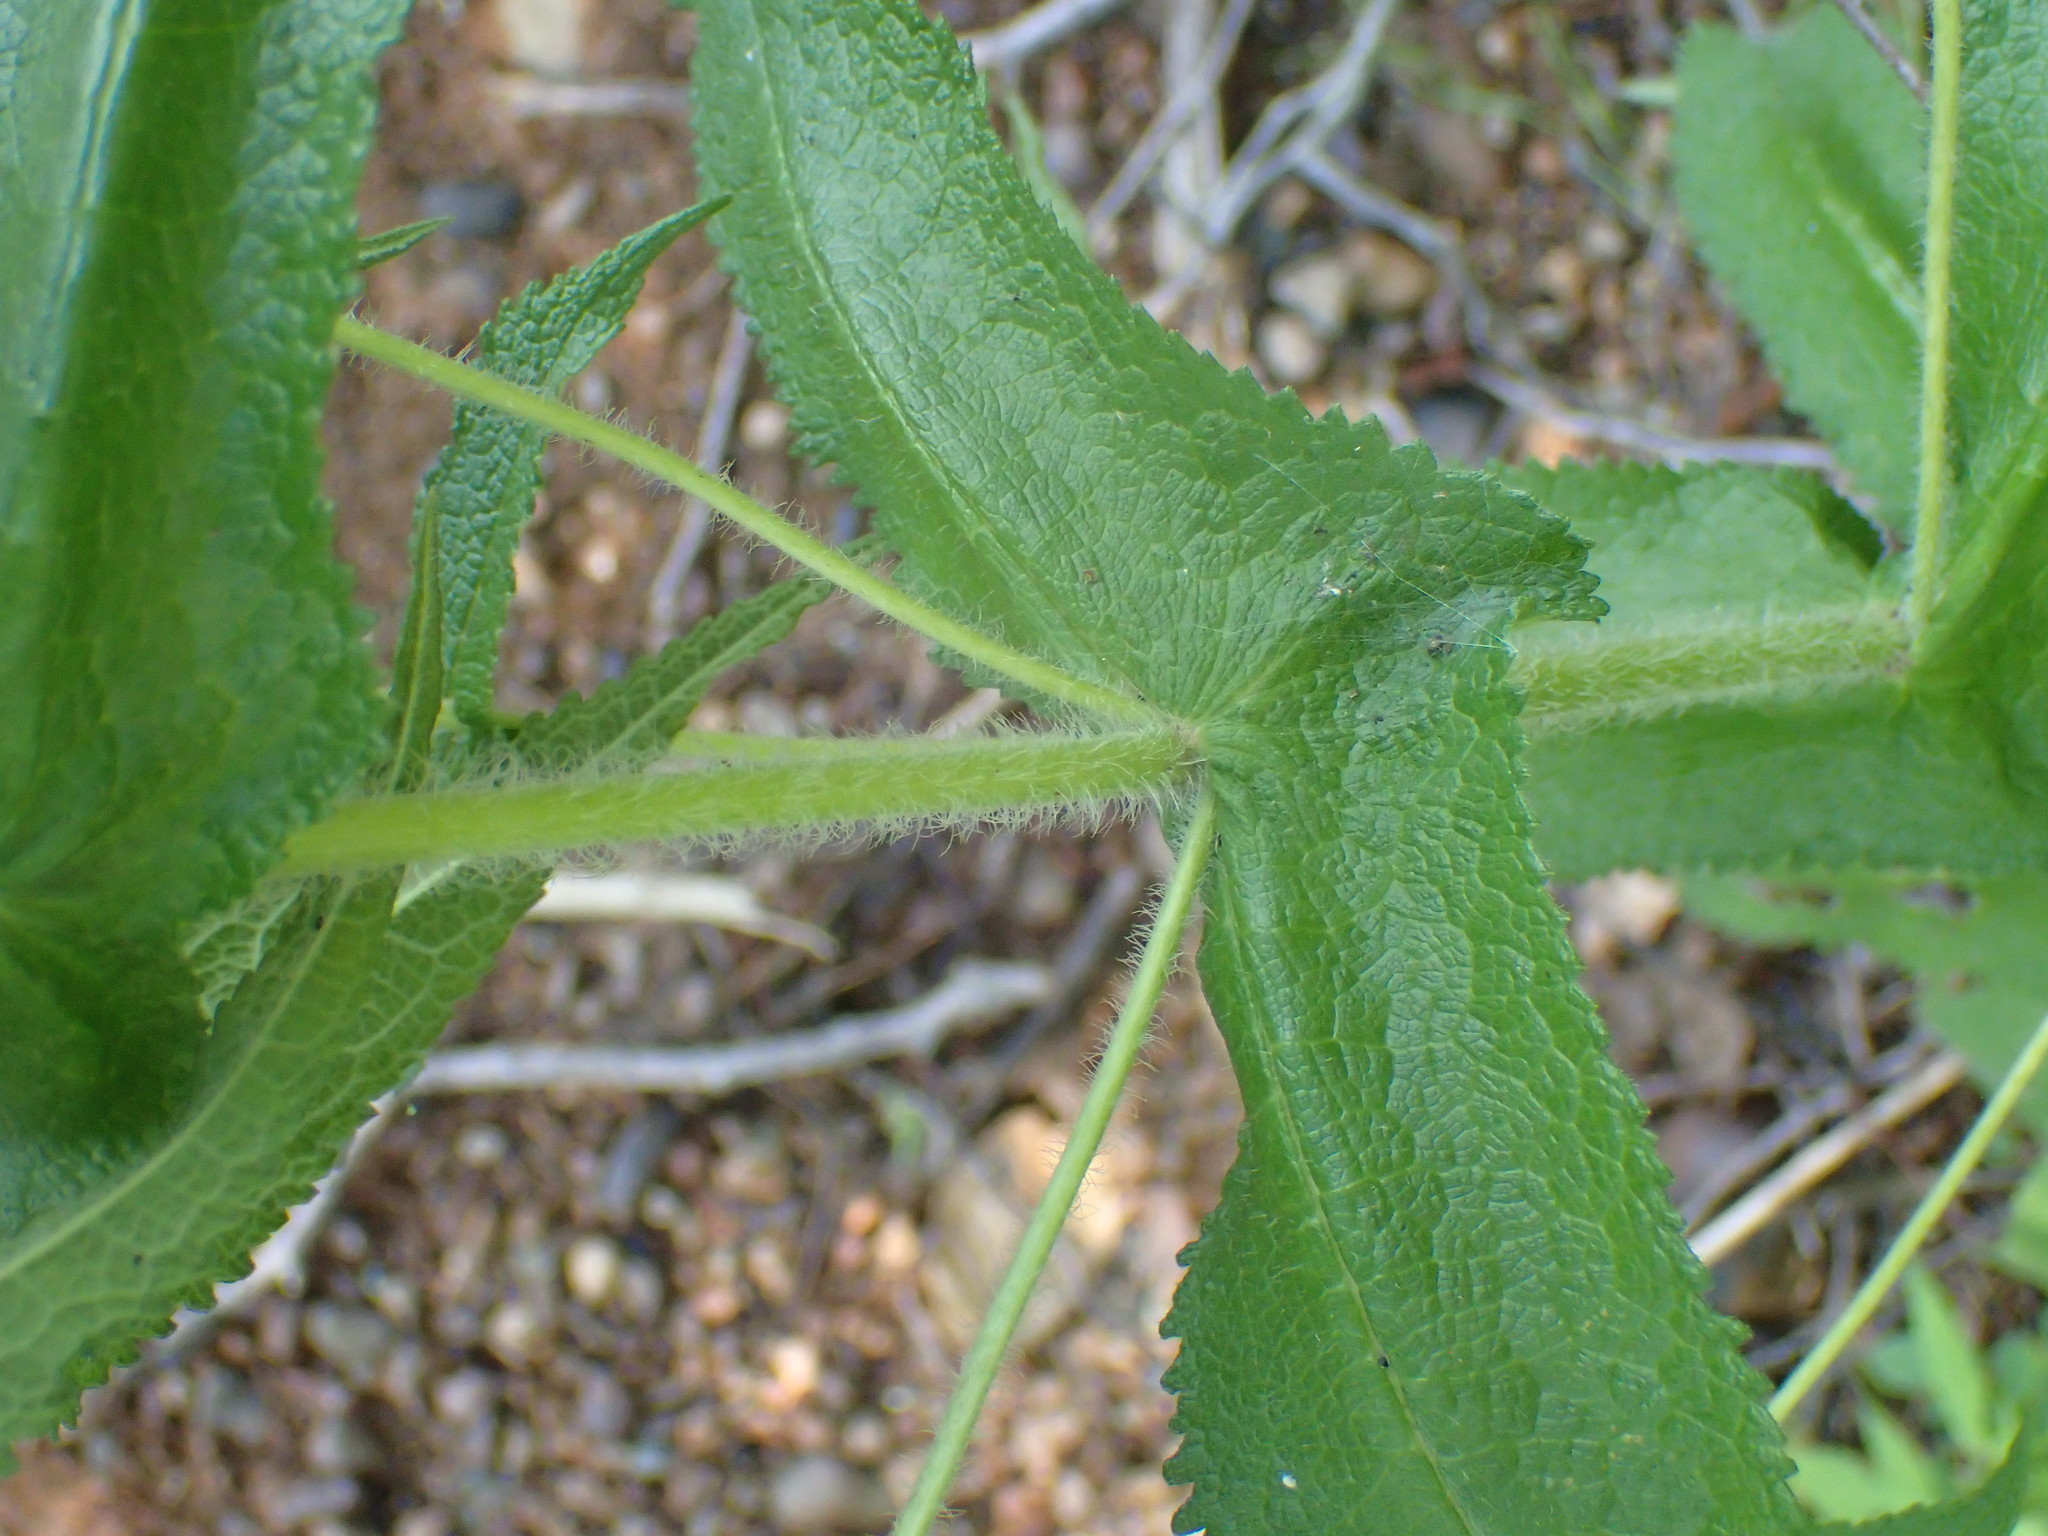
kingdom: Plantae
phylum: Tracheophyta
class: Magnoliopsida
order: Asterales
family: Asteraceae
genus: Eupatorium
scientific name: Eupatorium perfoliatum
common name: Boneset
